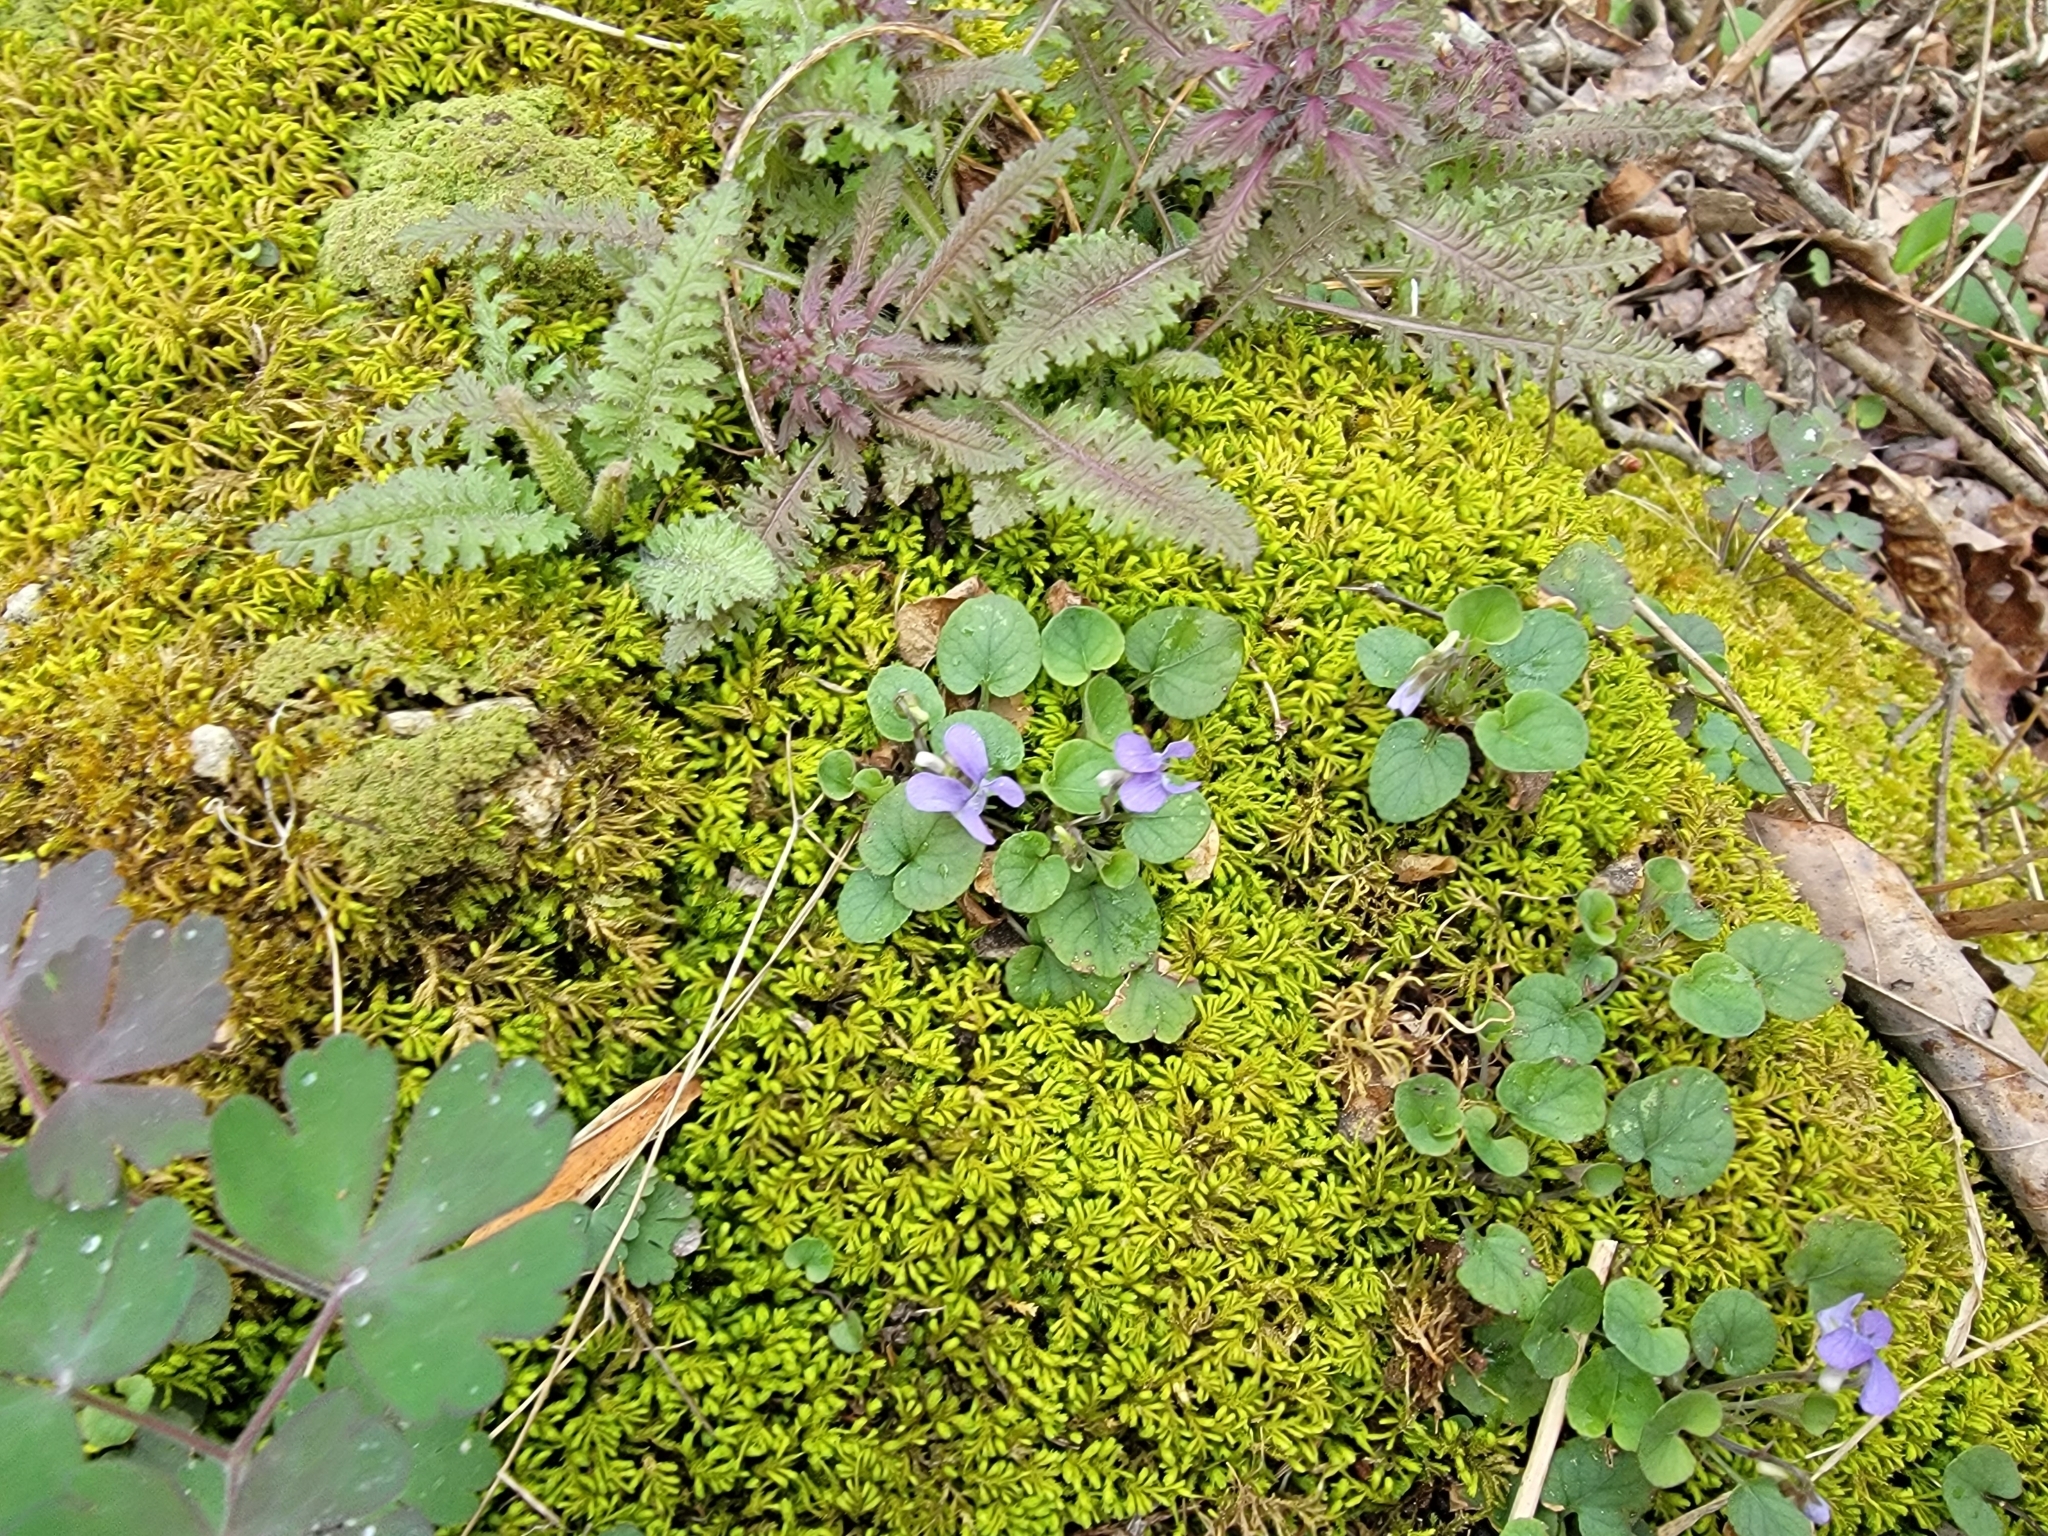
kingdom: Plantae
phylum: Tracheophyta
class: Magnoliopsida
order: Malpighiales
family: Violaceae
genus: Viola
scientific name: Viola walteri
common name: Prostrate southern violet
